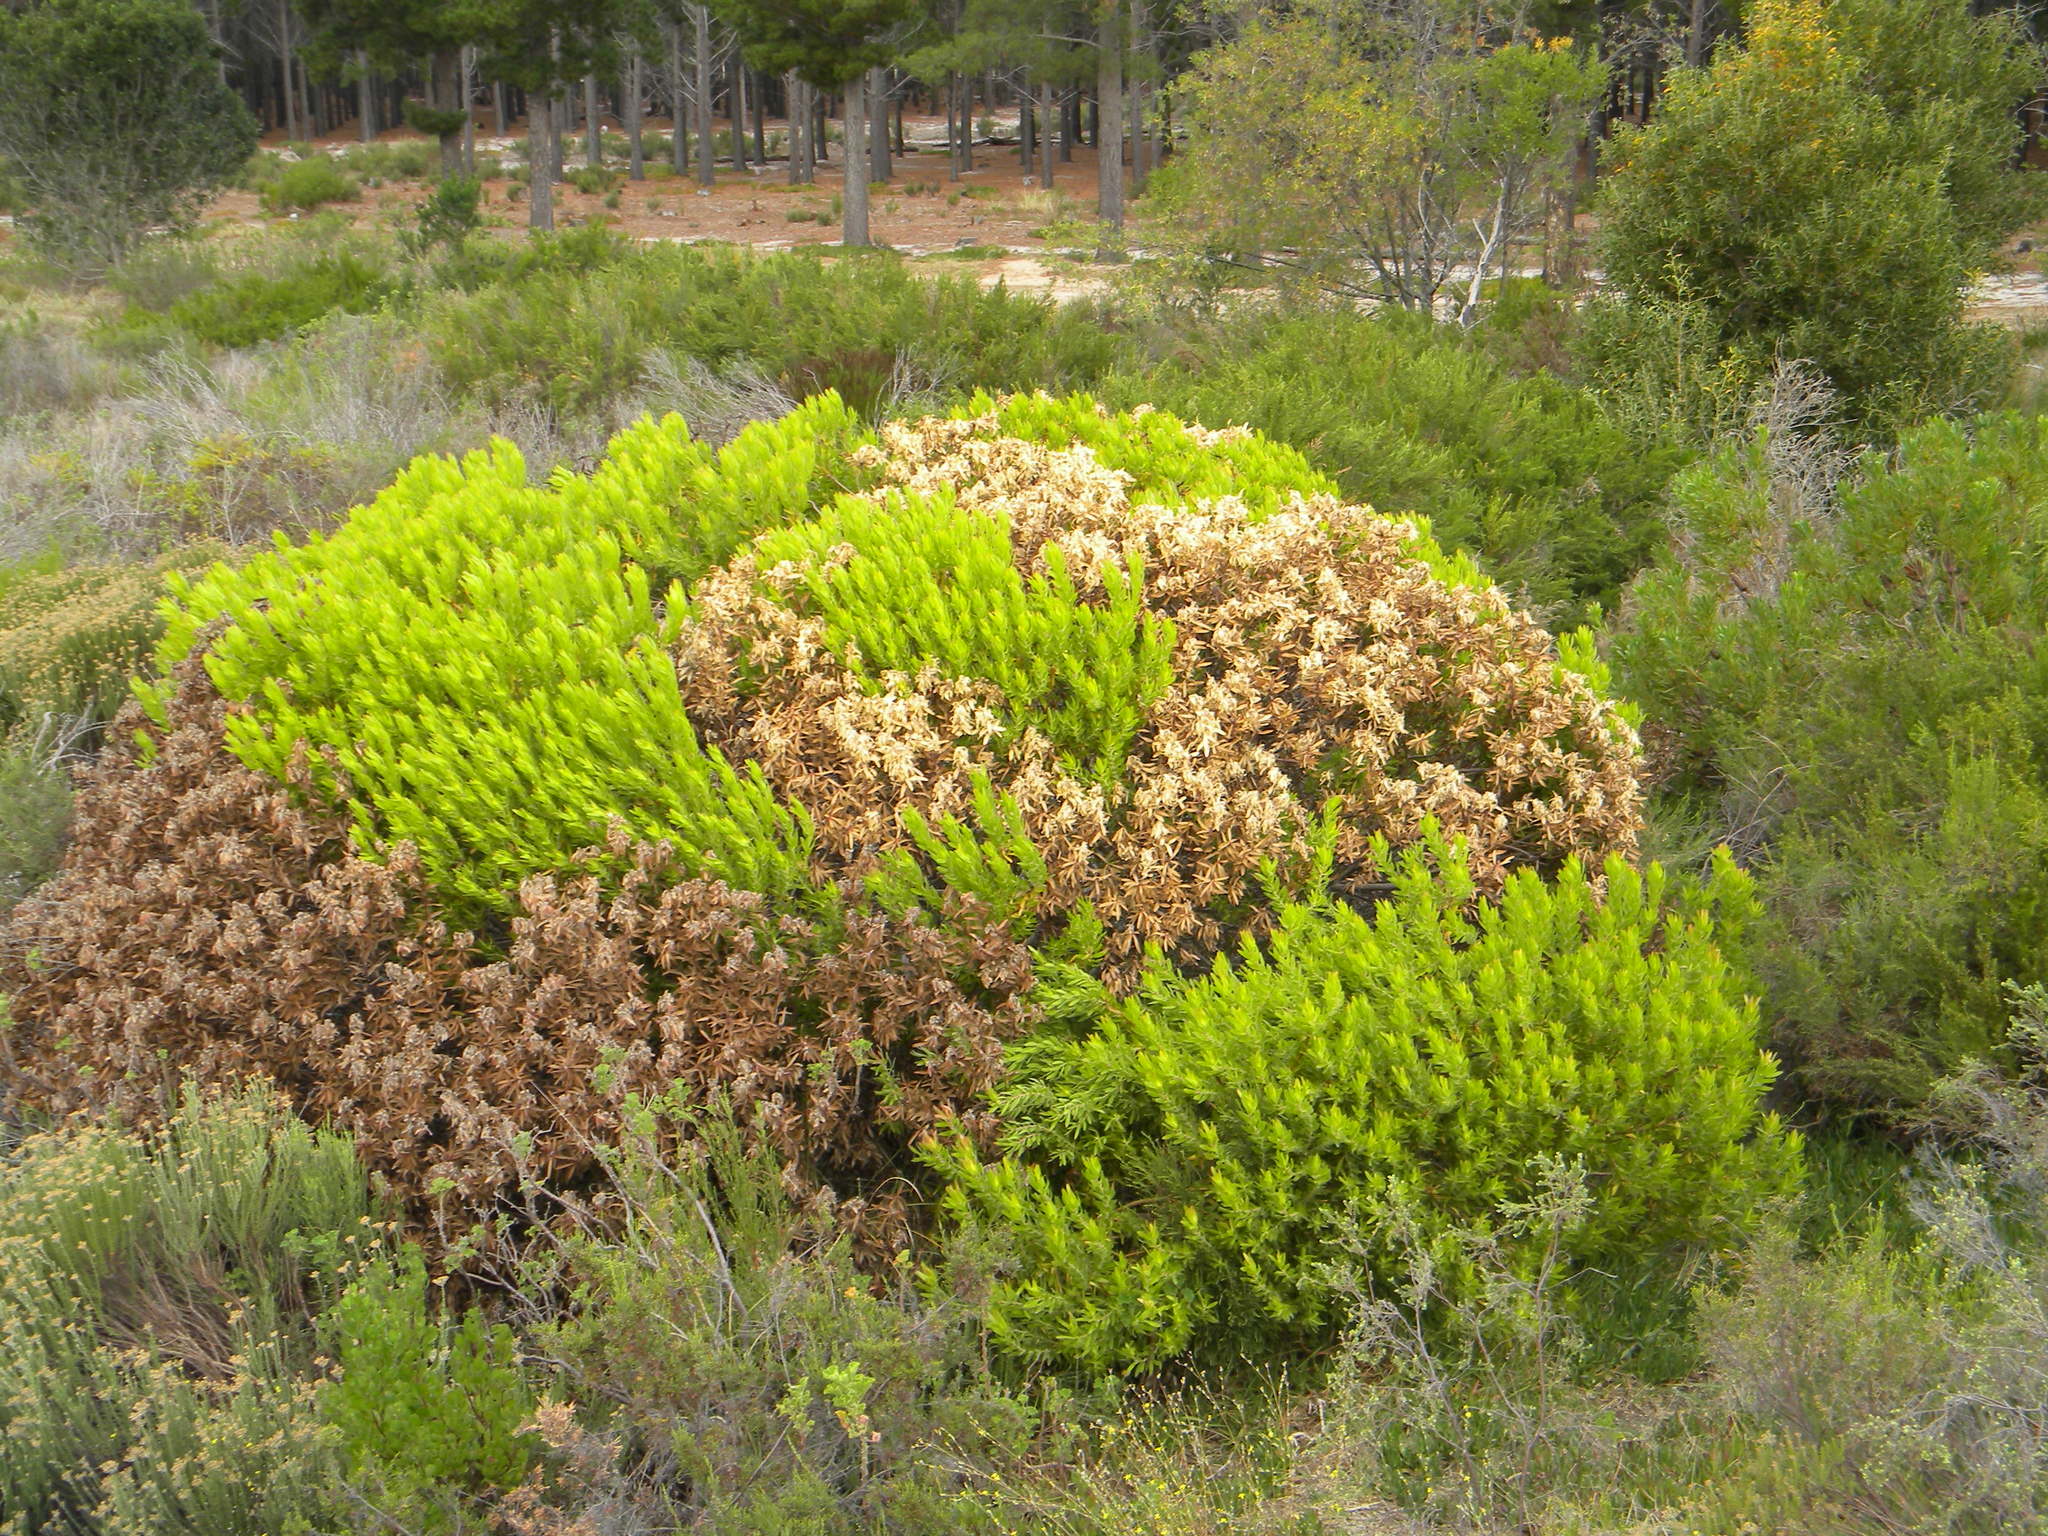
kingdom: Plantae
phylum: Tracheophyta
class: Magnoliopsida
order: Proteales
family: Proteaceae
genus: Leucadendron
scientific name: Leucadendron laureolum
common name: Golden sunshinebush
